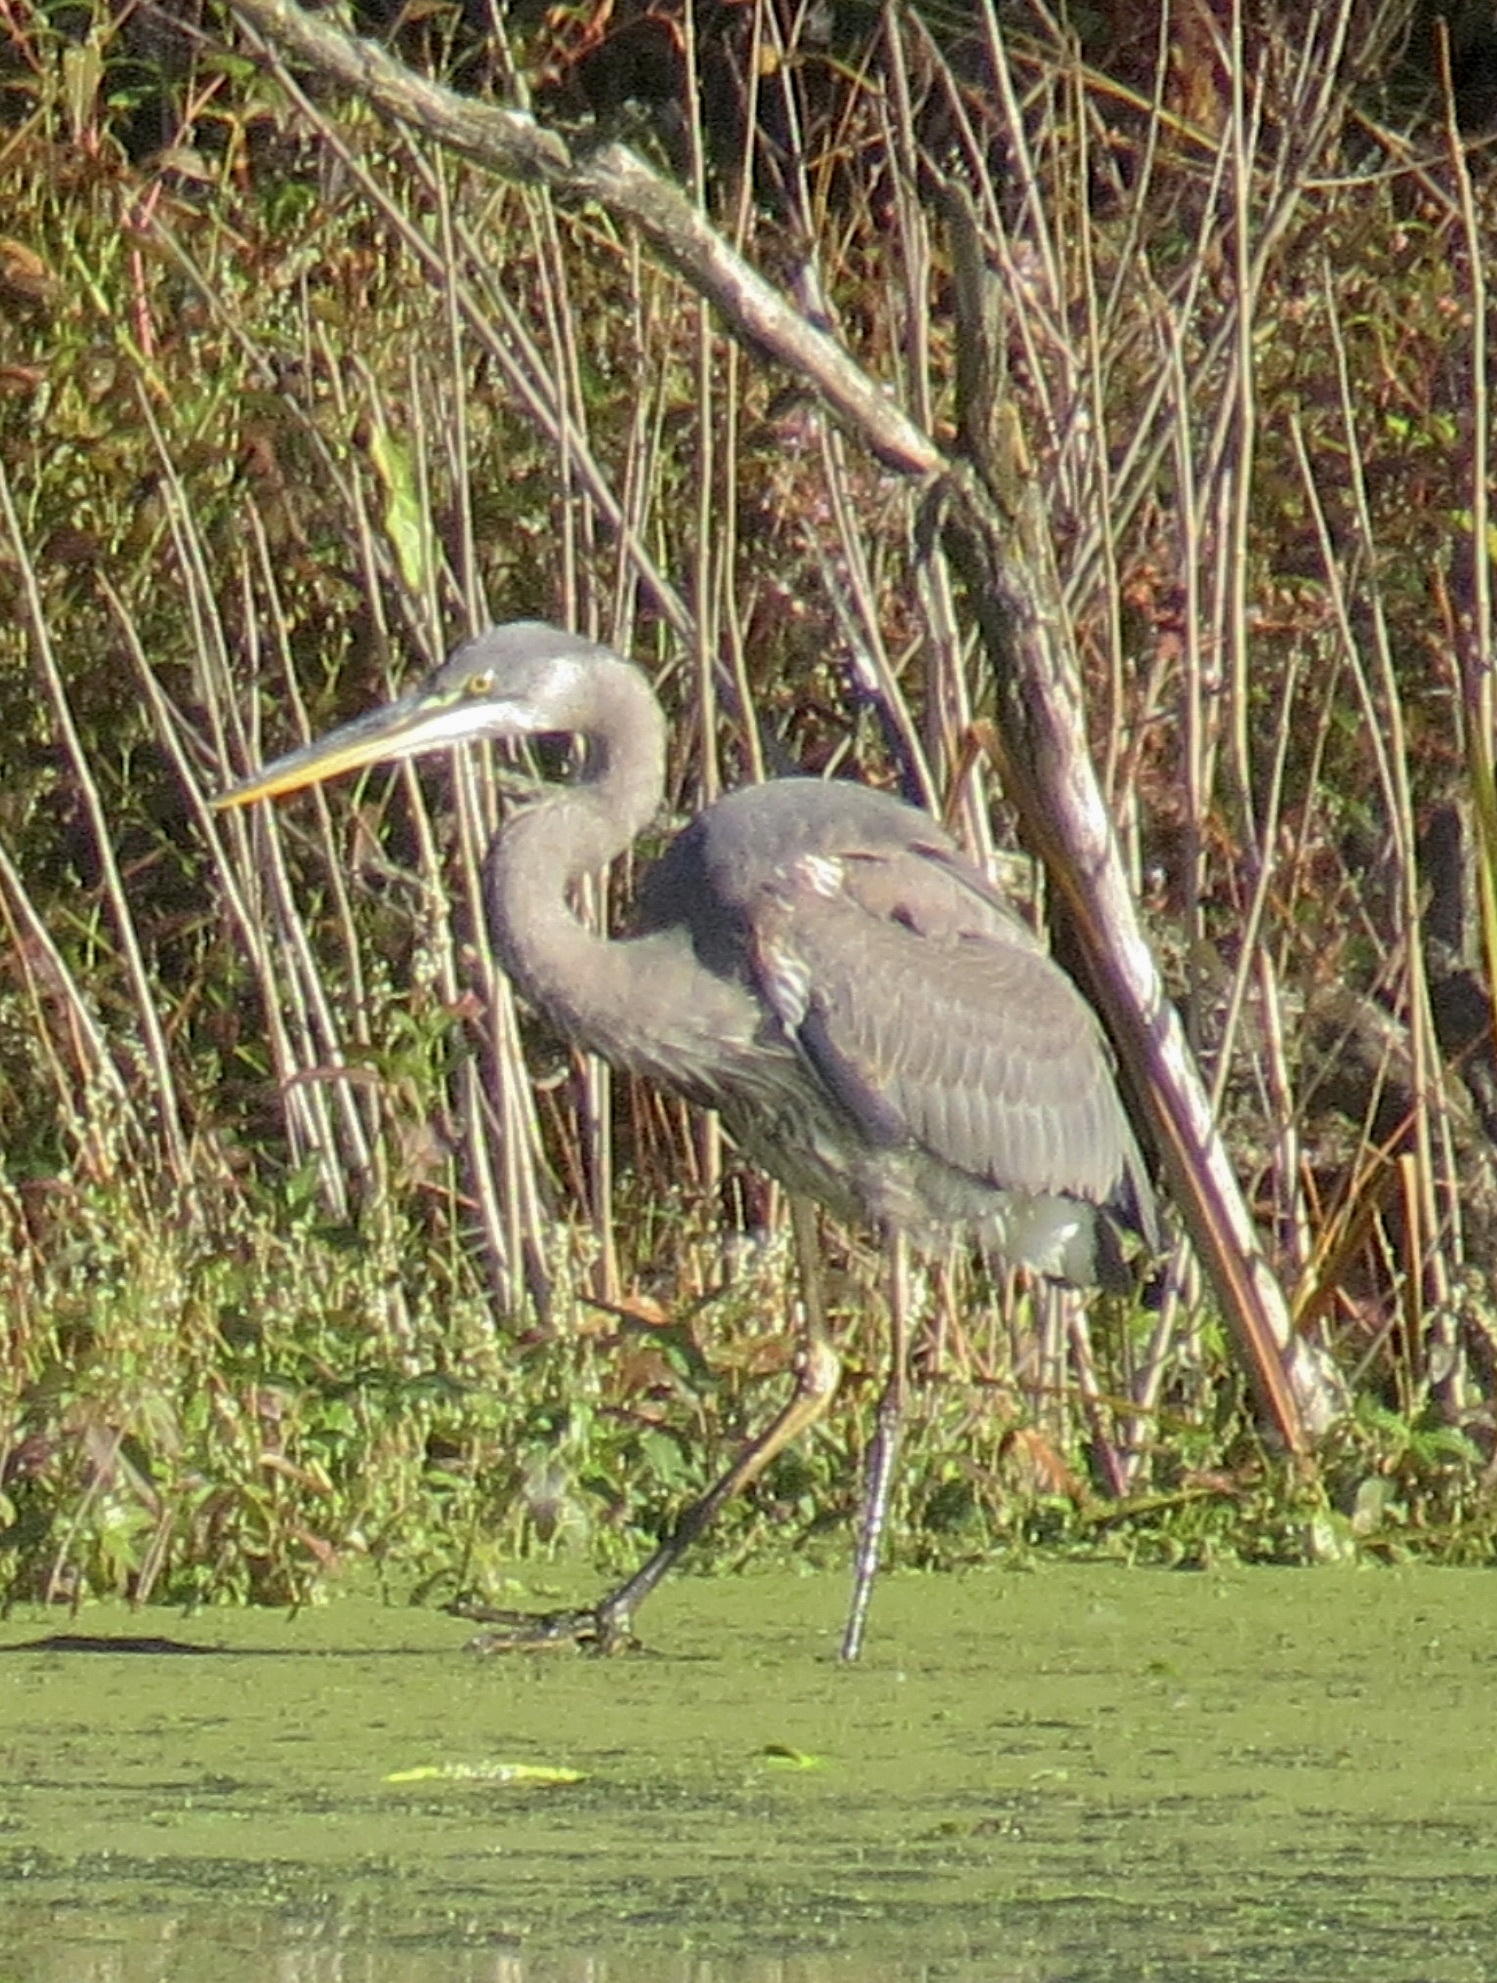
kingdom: Animalia
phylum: Chordata
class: Aves
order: Pelecaniformes
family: Ardeidae
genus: Ardea
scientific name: Ardea herodias
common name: Great blue heron
